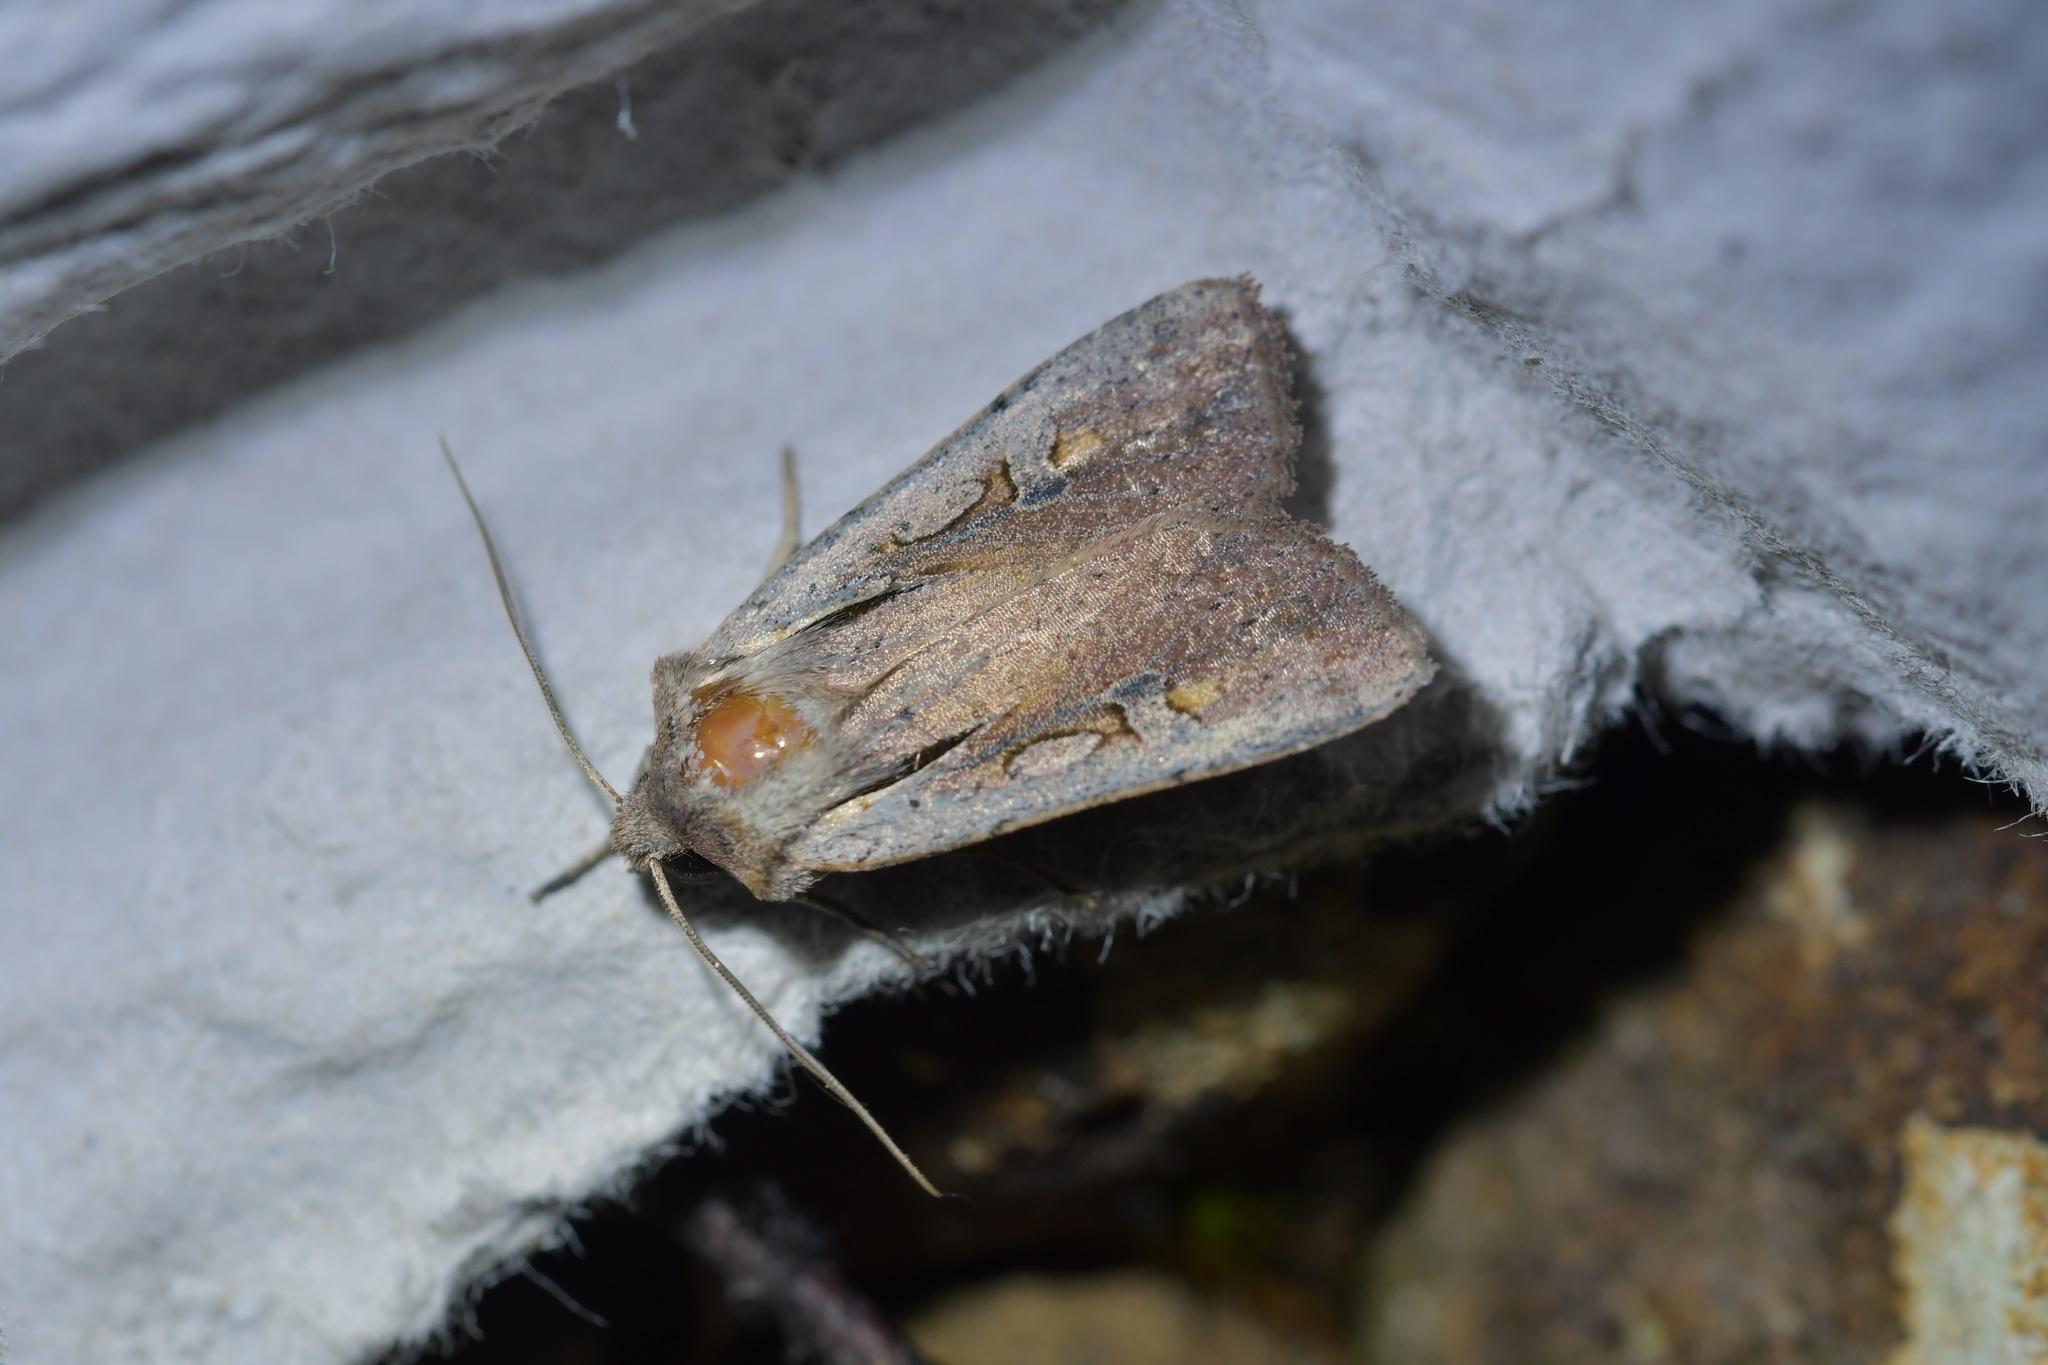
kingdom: Animalia
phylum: Arthropoda
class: Insecta
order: Lepidoptera
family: Noctuidae
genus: Ichneutica
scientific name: Ichneutica atristriga
